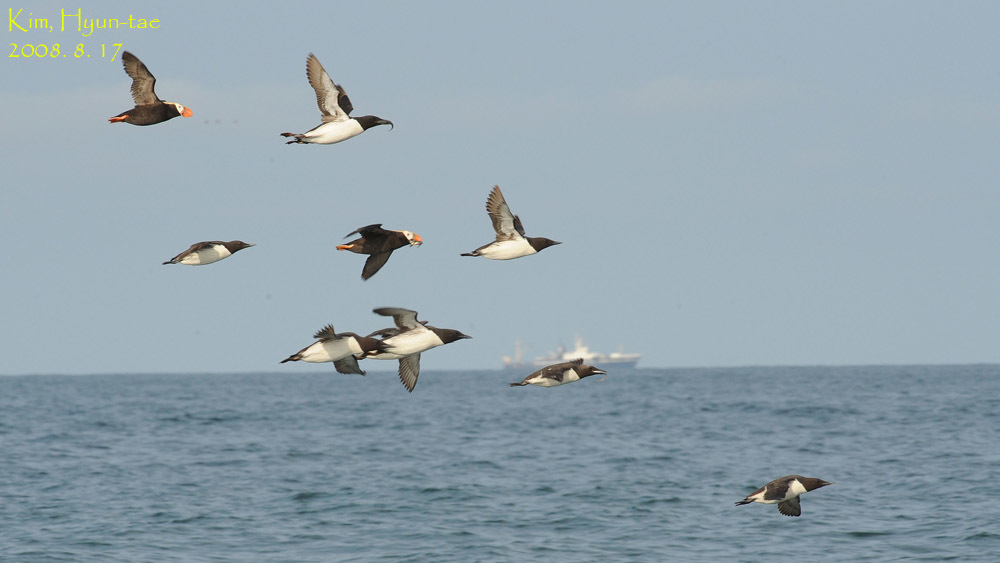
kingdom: Animalia
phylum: Chordata
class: Aves
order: Charadriiformes
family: Alcidae
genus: Uria
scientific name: Uria lomvia
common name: Thick-billed murre
